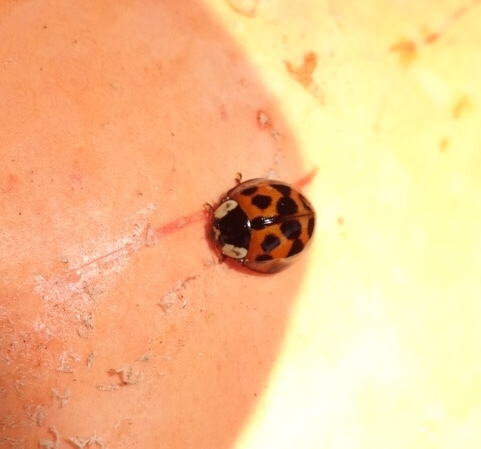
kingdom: Animalia
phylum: Arthropoda
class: Insecta
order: Coleoptera
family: Coccinellidae
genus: Harmonia
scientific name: Harmonia axyridis
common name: Harlequin ladybird
